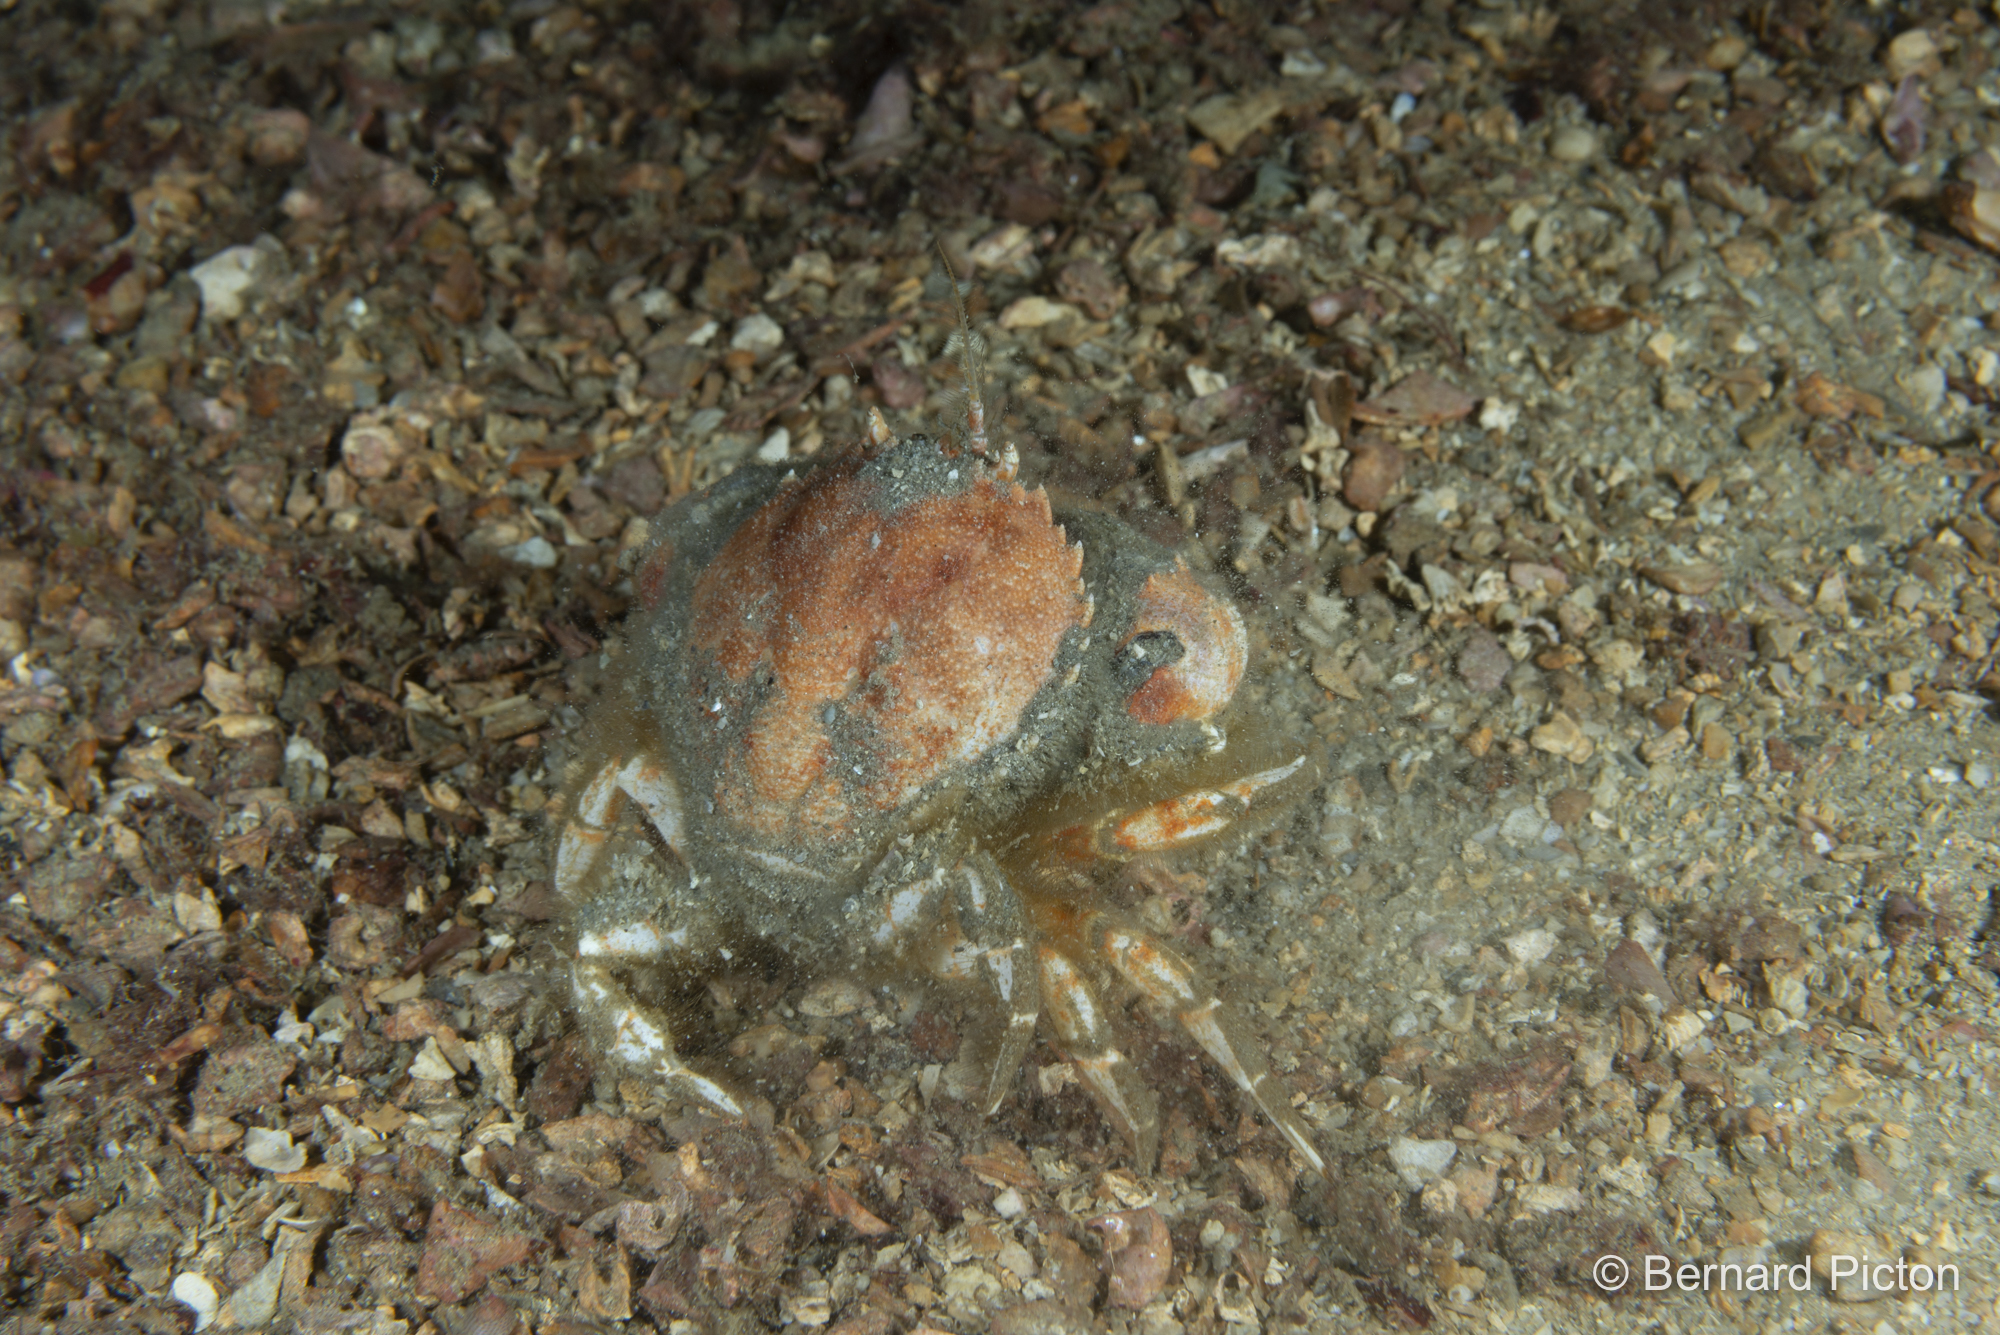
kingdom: Animalia
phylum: Arthropoda
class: Malacostraca
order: Decapoda
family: Atelecyclidae
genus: Atelecyclus
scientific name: Atelecyclus rotundatus
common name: Circular crab
